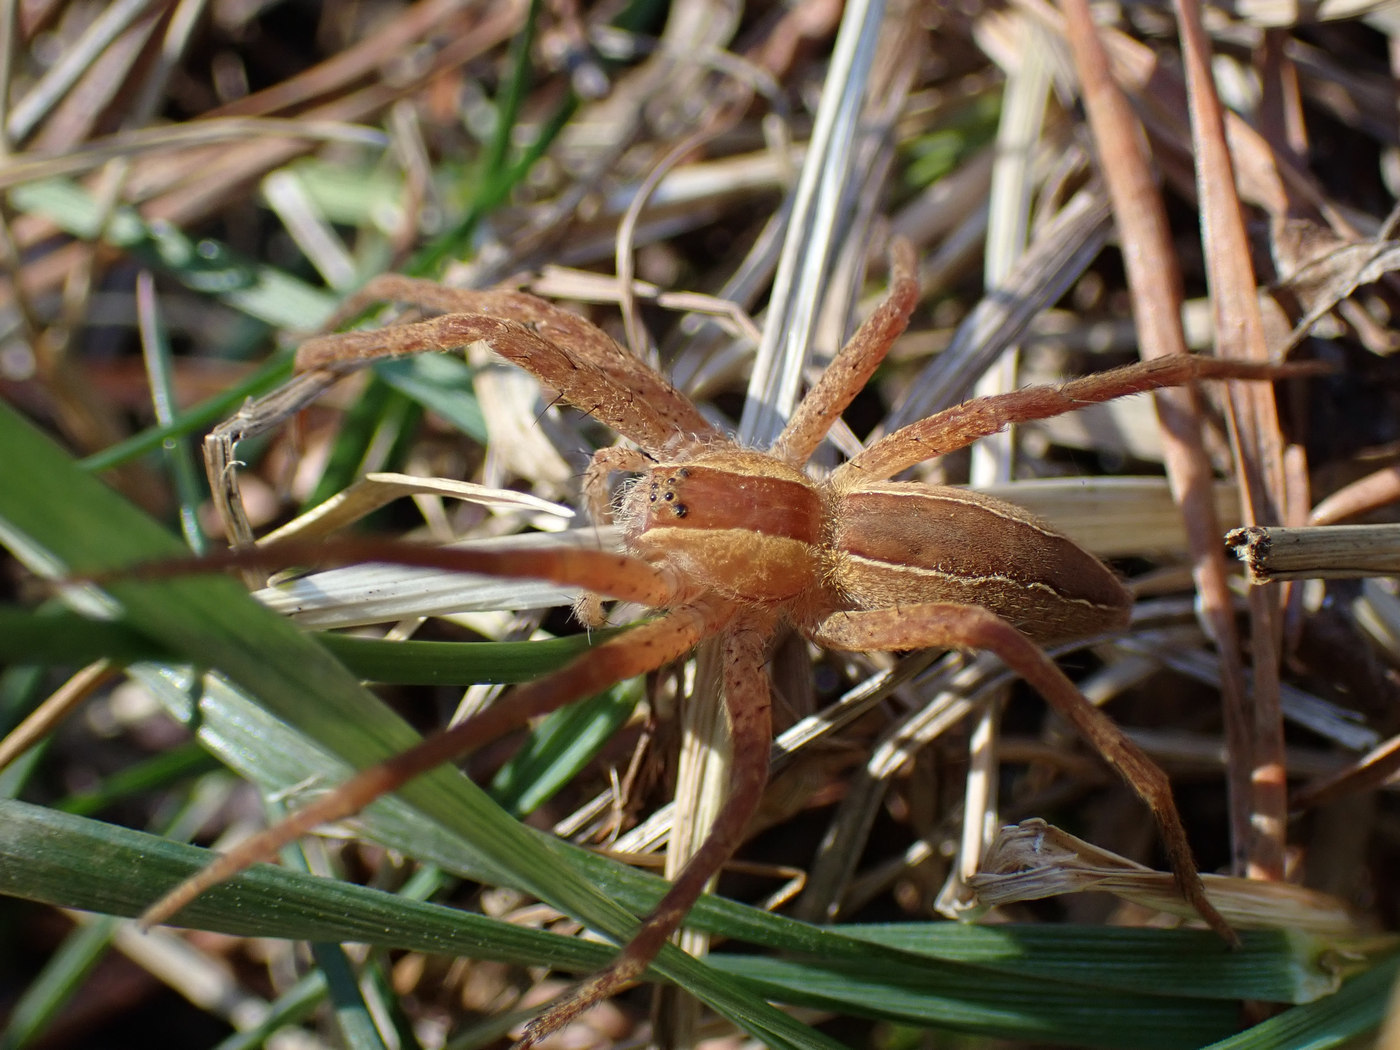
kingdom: Animalia
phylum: Arthropoda
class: Arachnida
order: Araneae
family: Pisauridae
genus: Pisaurina
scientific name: Pisaurina mira
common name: American nursery web spider
